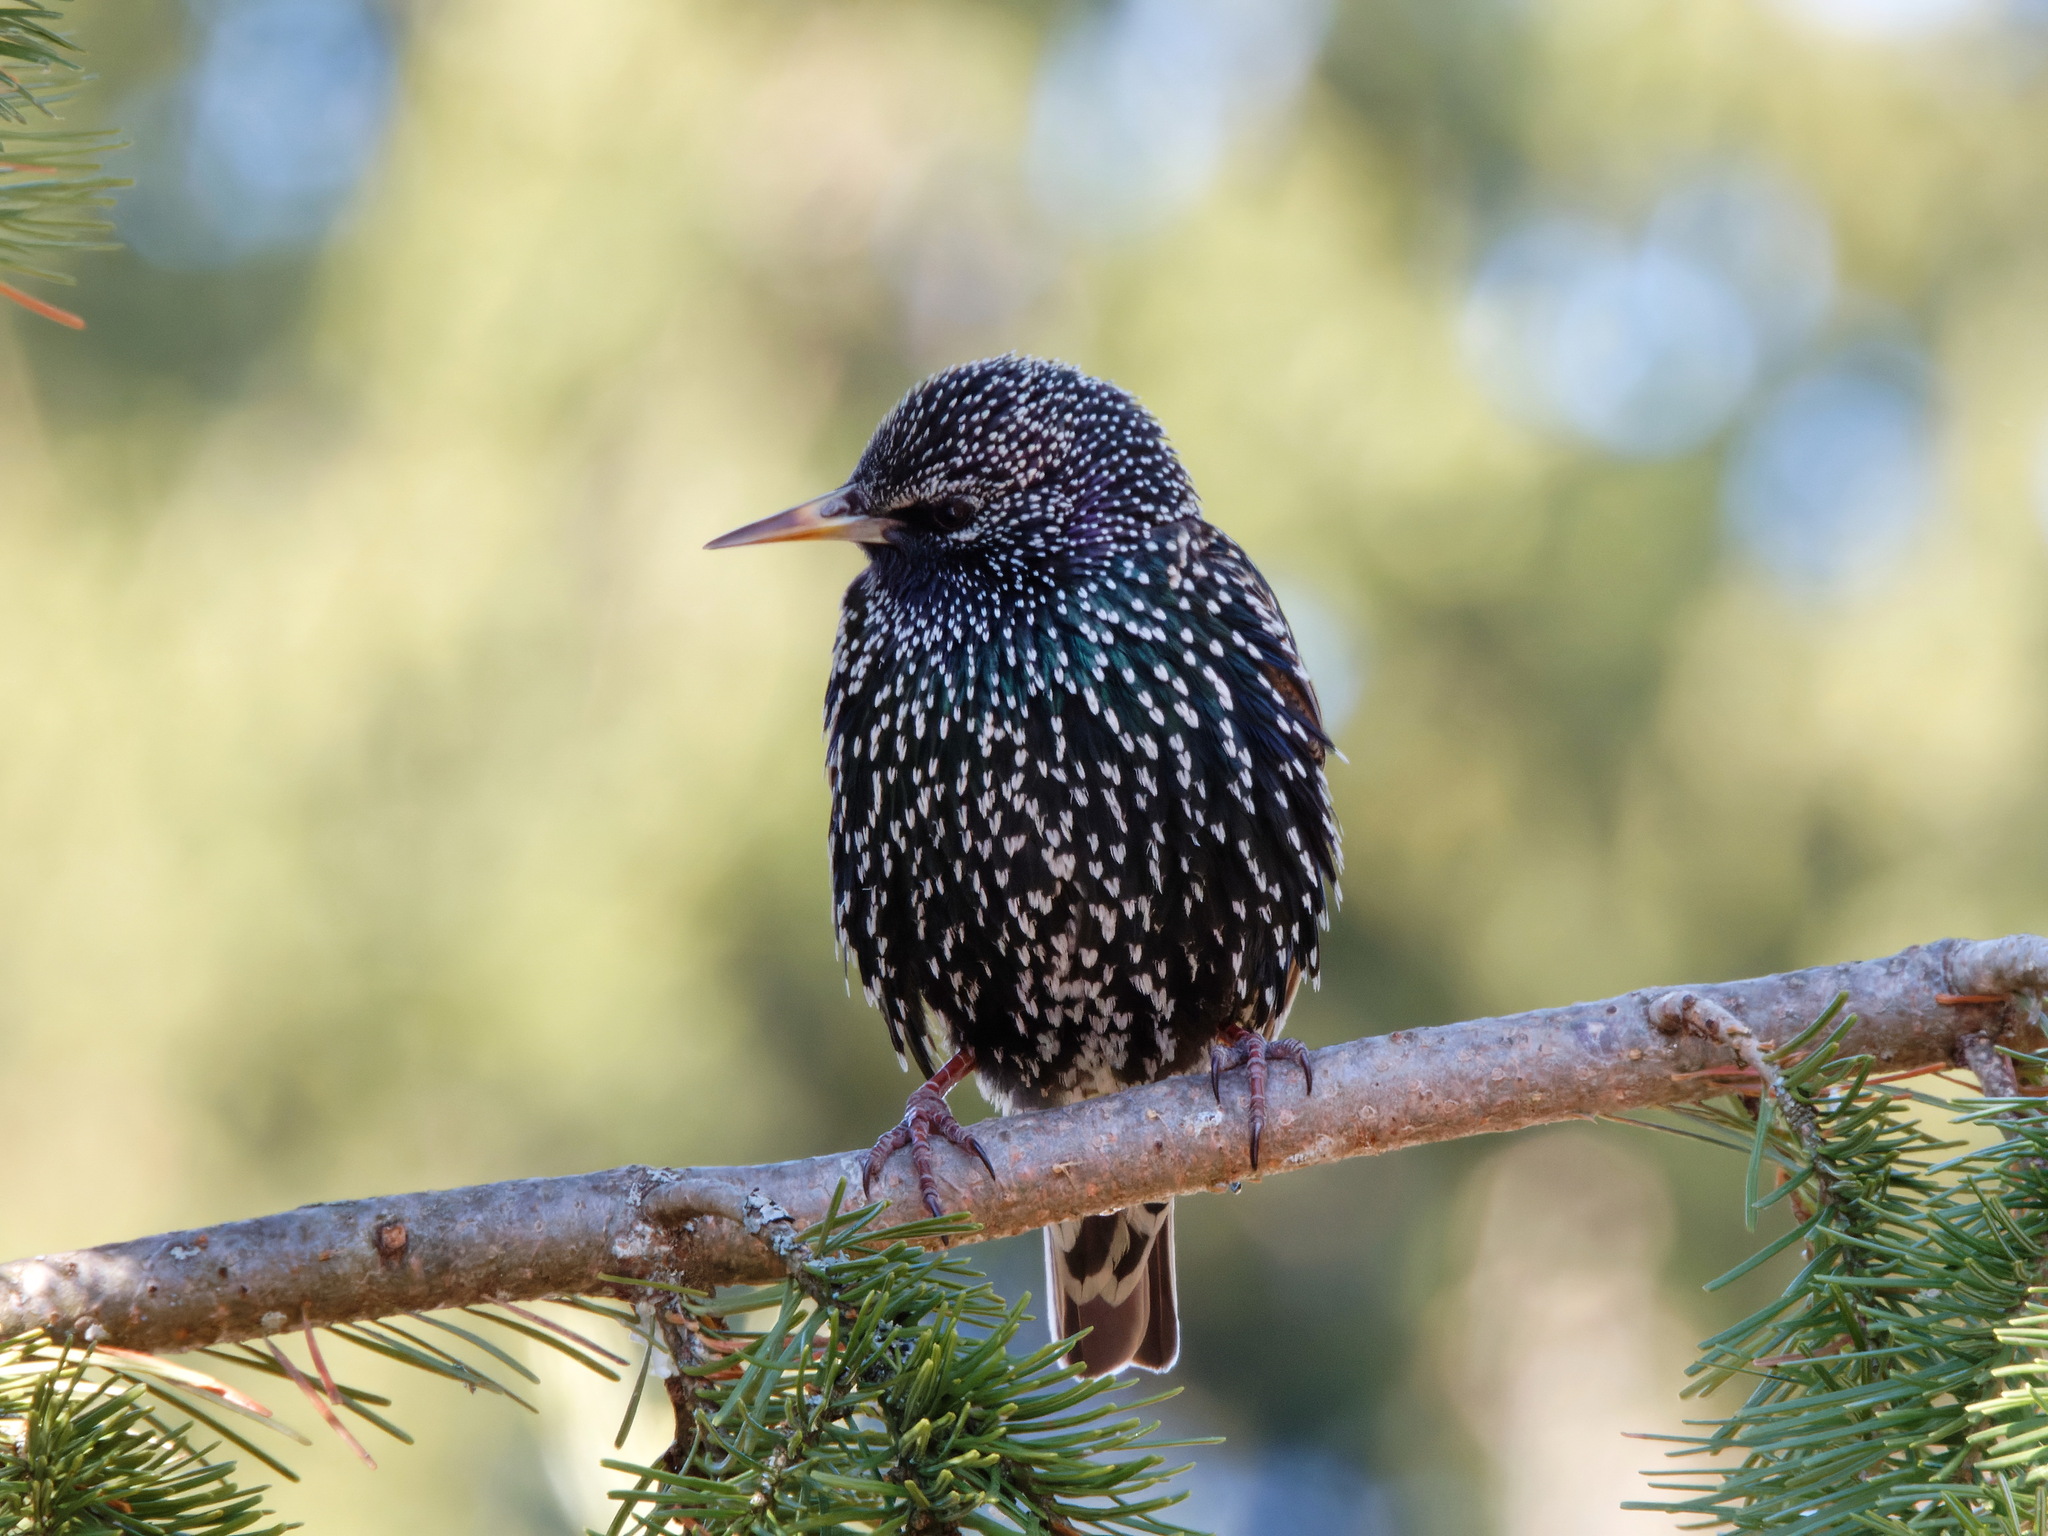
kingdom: Animalia
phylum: Chordata
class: Aves
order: Passeriformes
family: Sturnidae
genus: Sturnus
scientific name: Sturnus vulgaris
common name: Common starling
